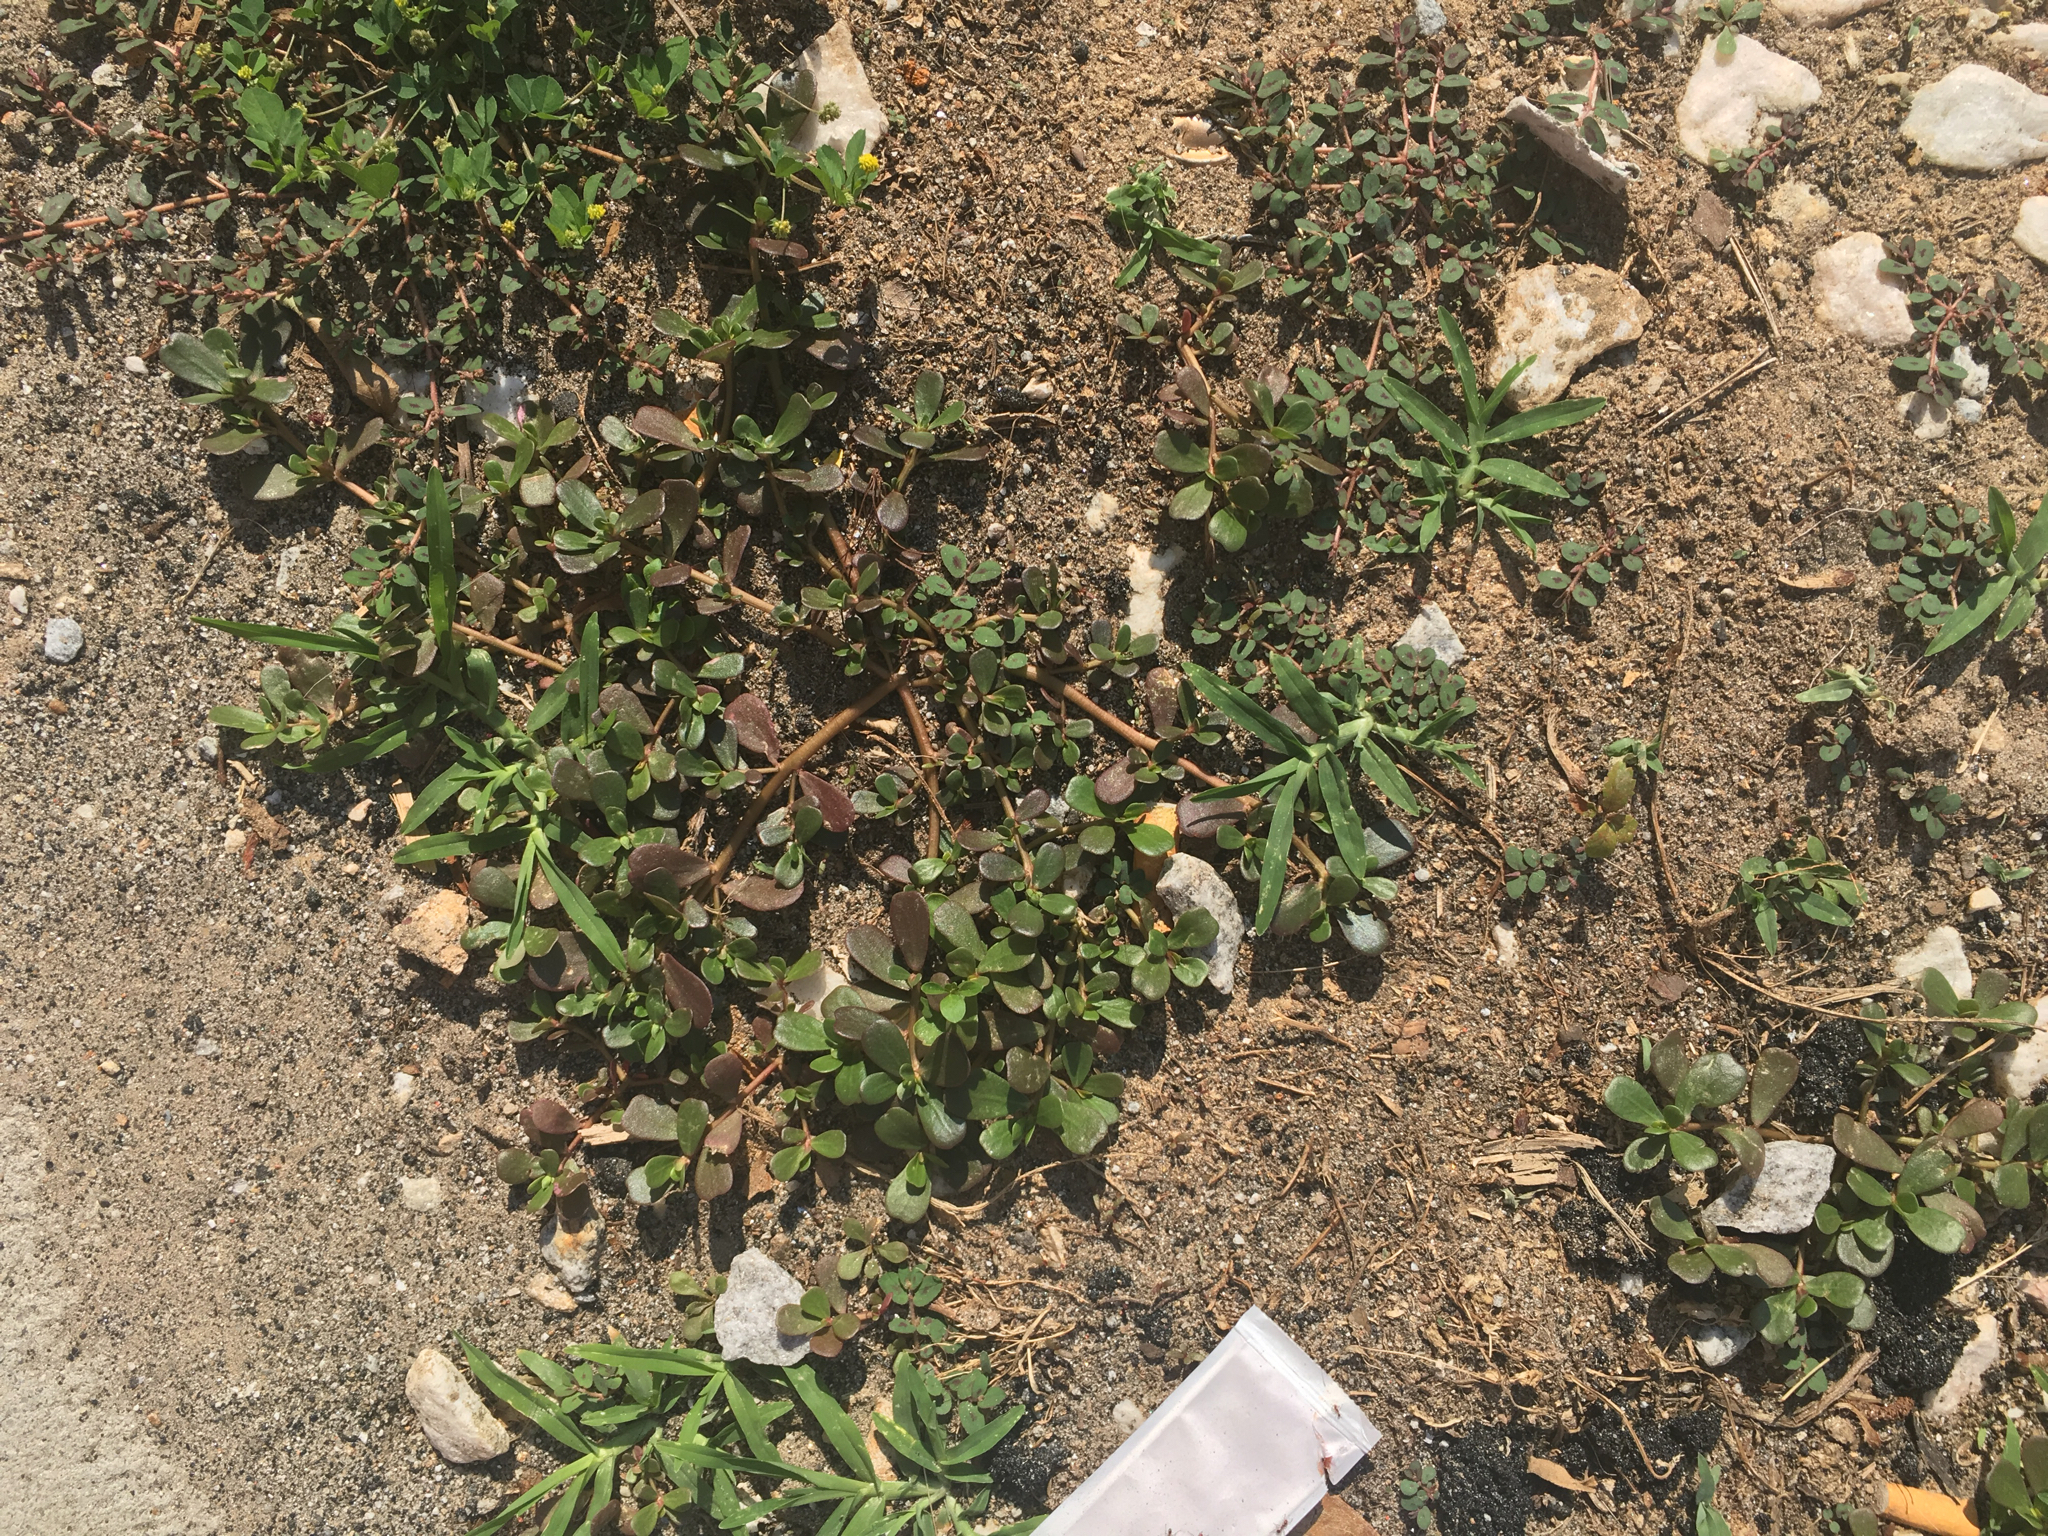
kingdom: Plantae
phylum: Tracheophyta
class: Magnoliopsida
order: Caryophyllales
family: Portulacaceae
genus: Portulaca
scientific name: Portulaca oleracea
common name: Common purslane
